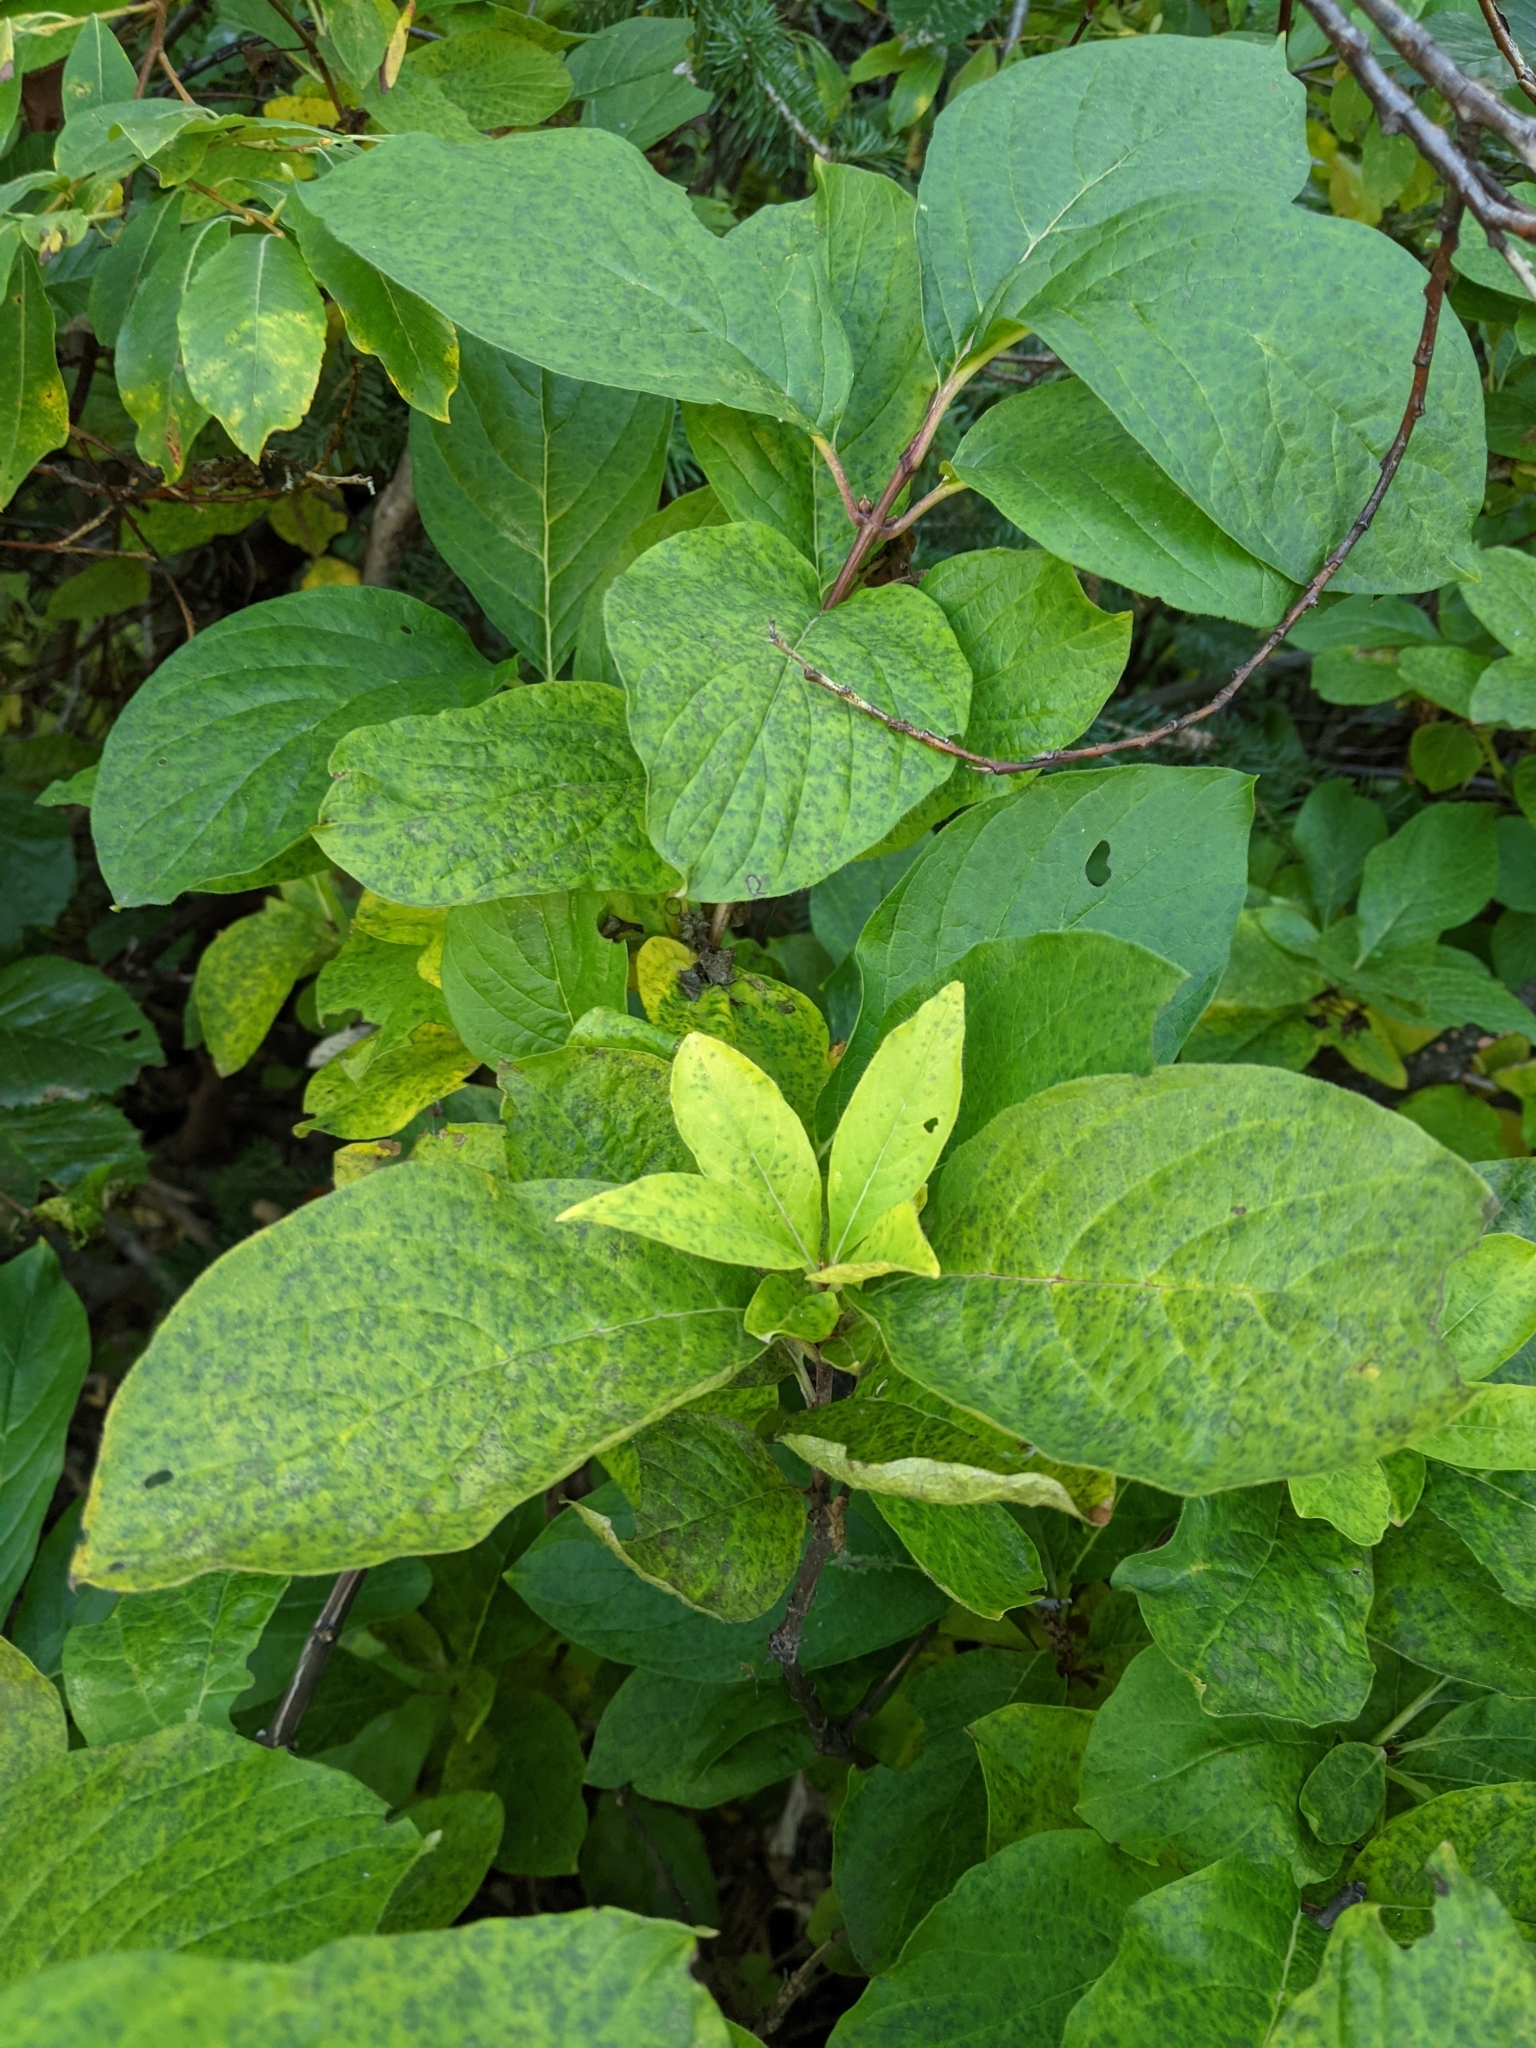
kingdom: Plantae
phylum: Tracheophyta
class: Magnoliopsida
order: Dipsacales
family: Caprifoliaceae
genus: Lonicera
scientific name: Lonicera involucrata
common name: Californian honeysuckle
